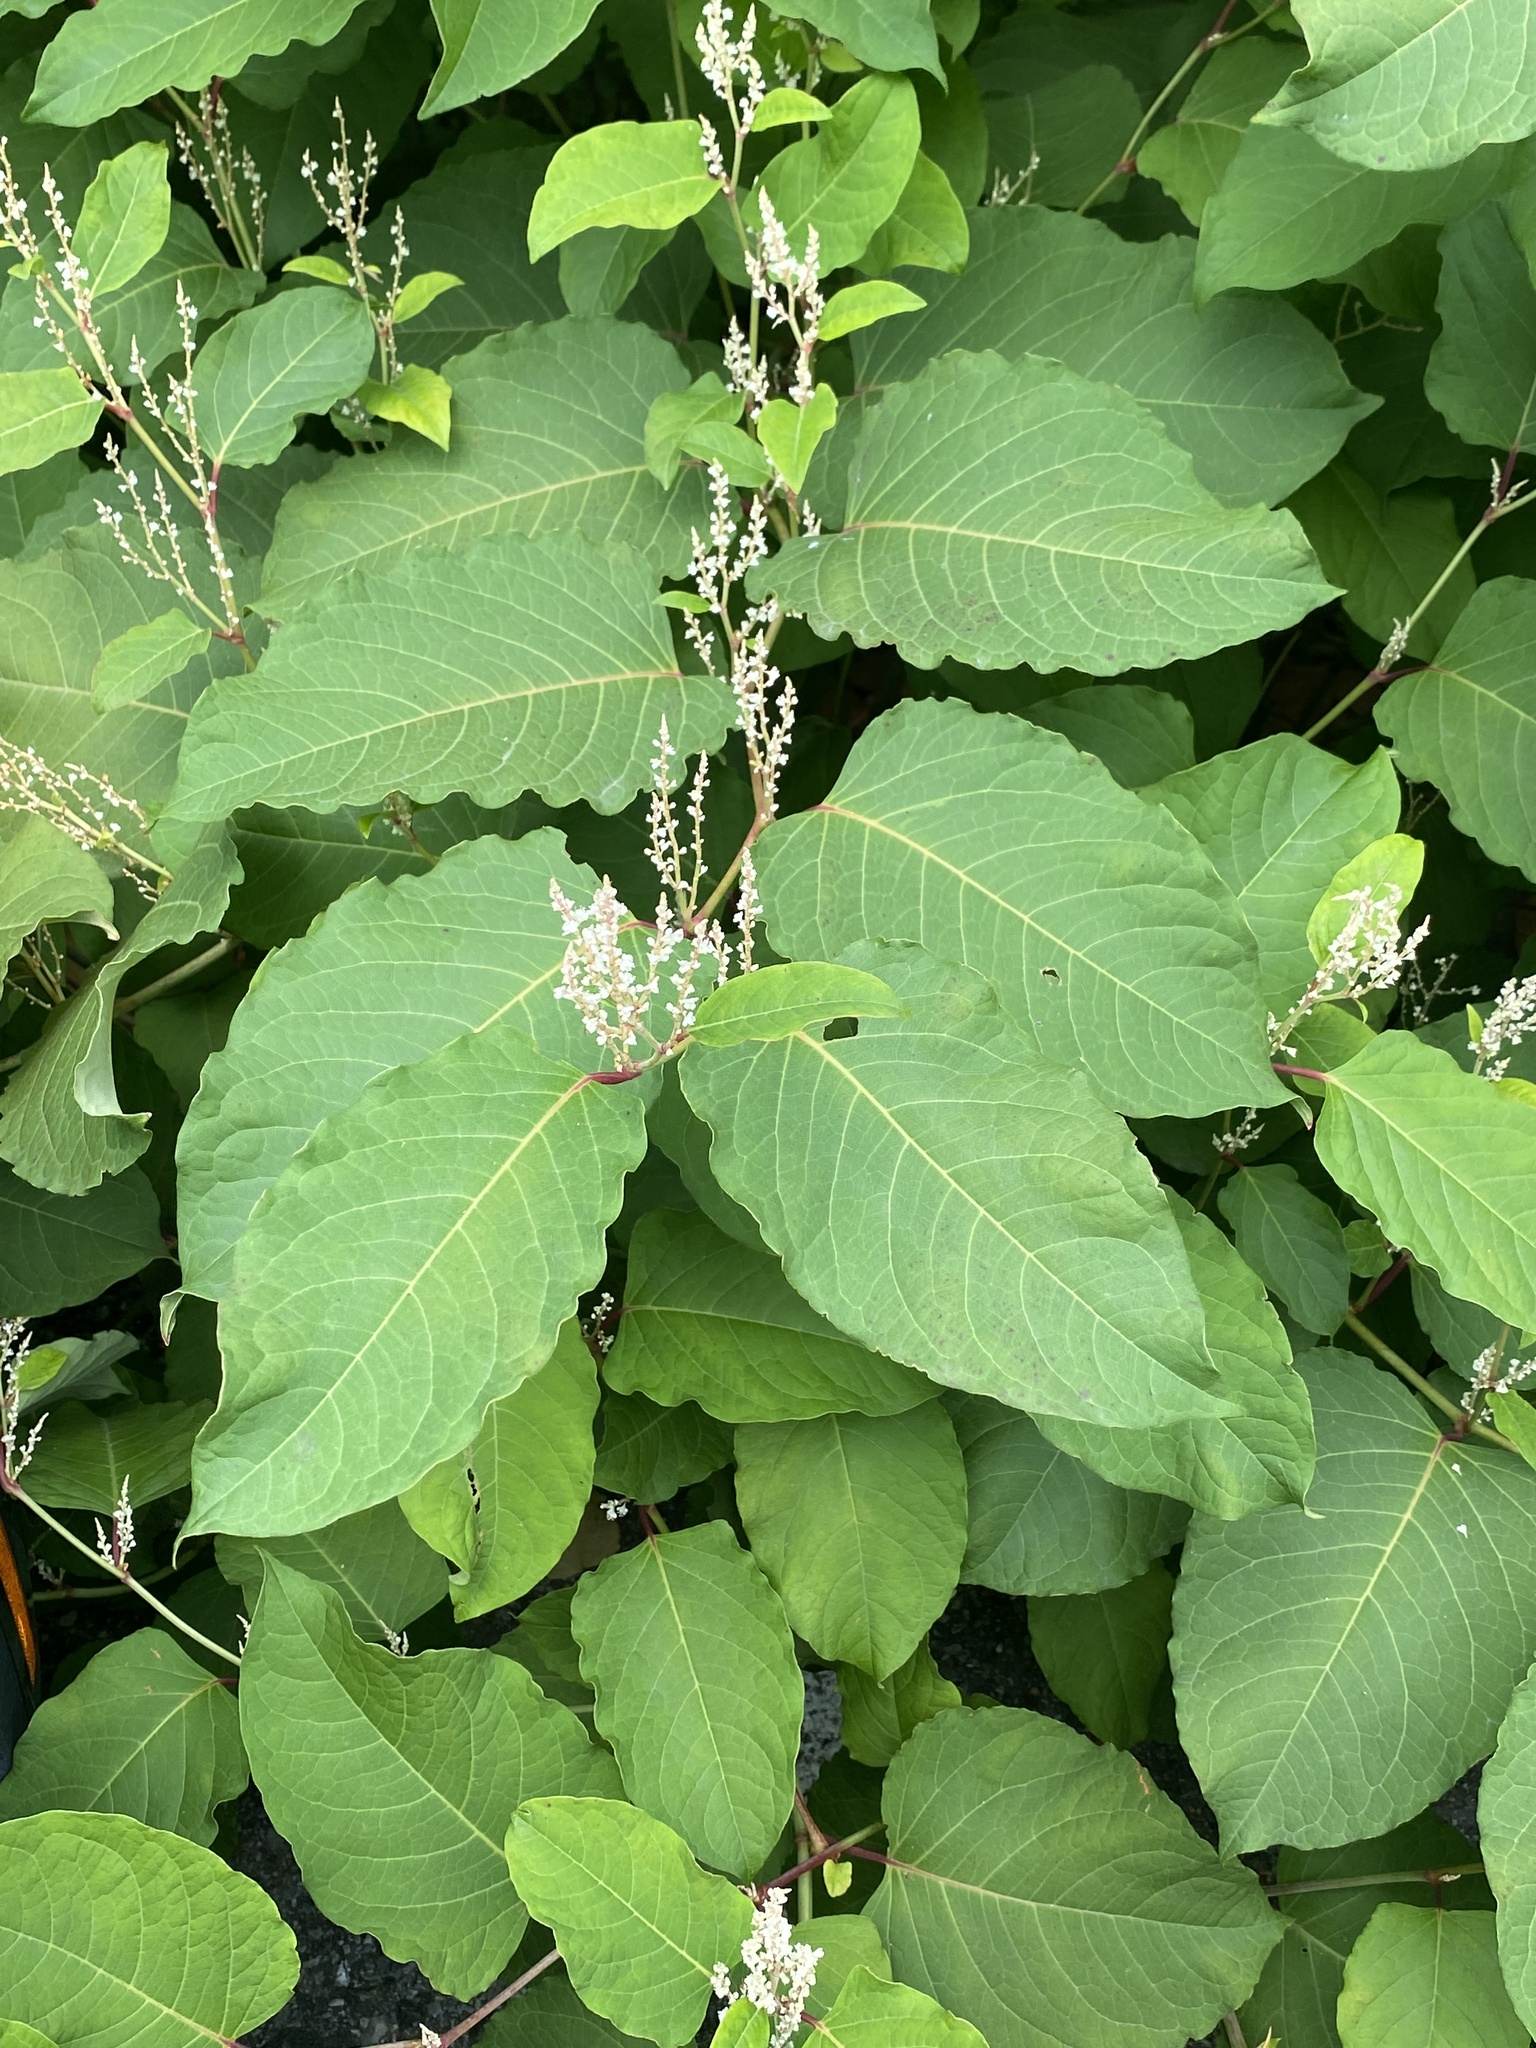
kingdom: Plantae
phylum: Tracheophyta
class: Magnoliopsida
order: Caryophyllales
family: Polygonaceae
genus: Reynoutria
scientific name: Reynoutria
